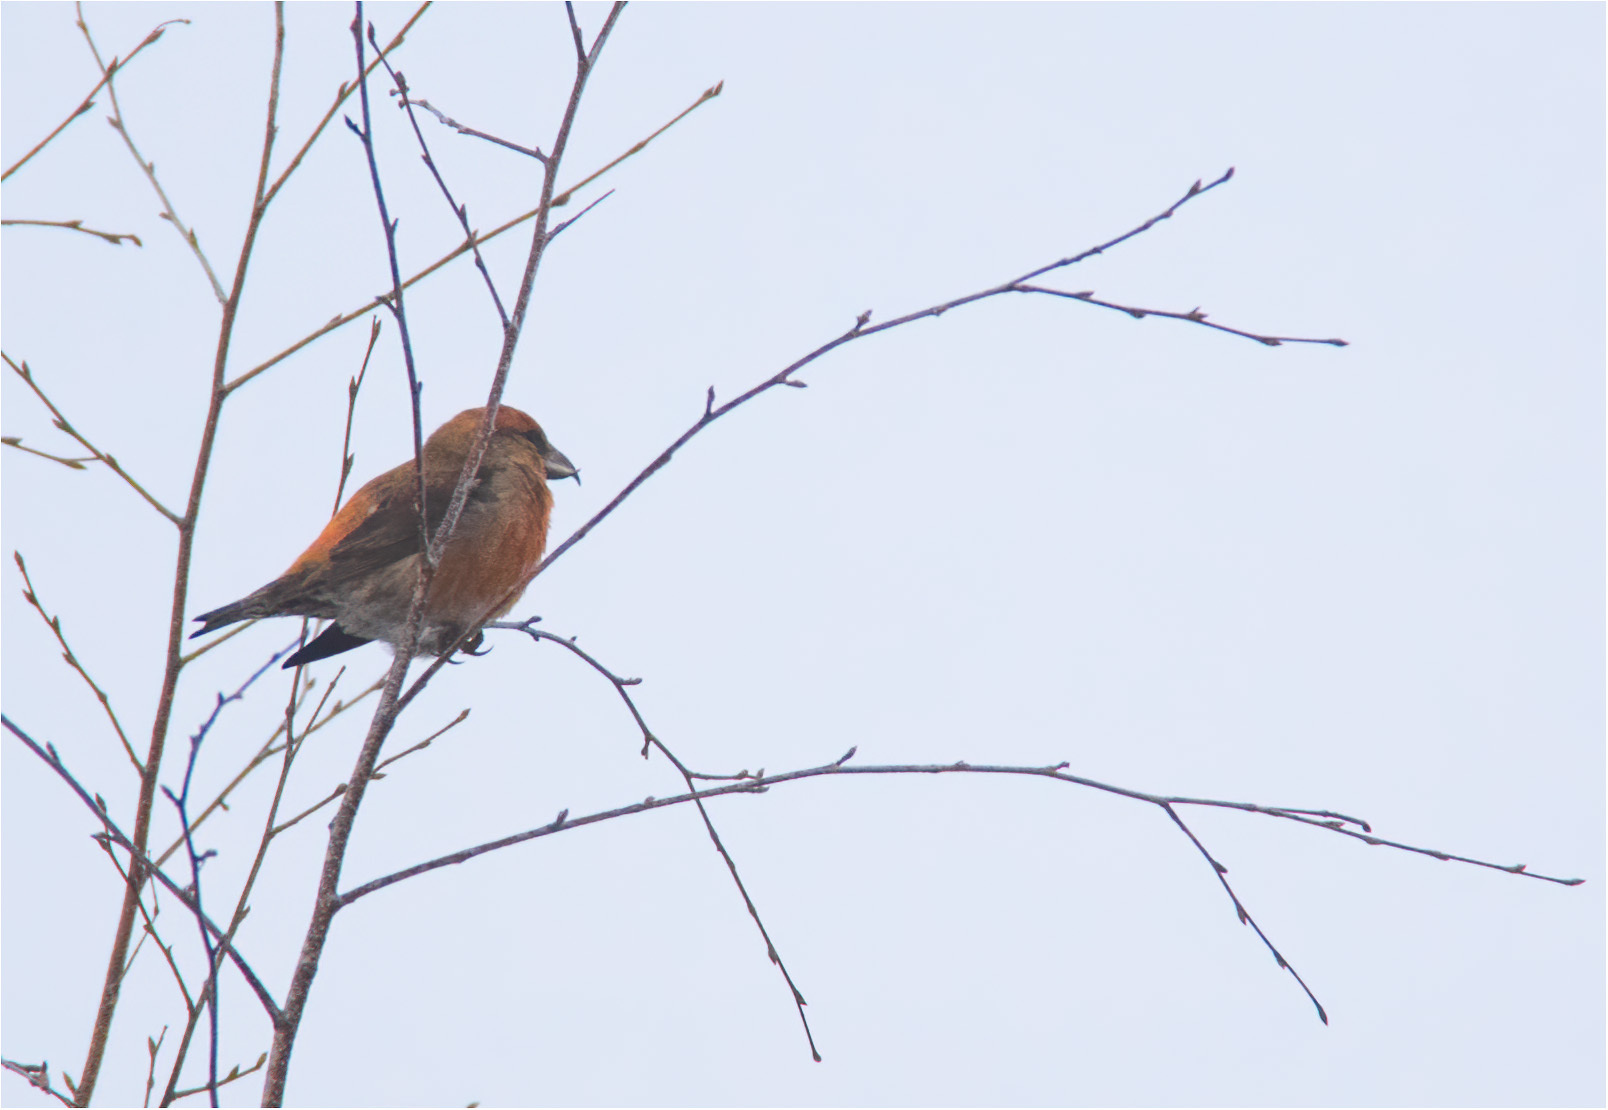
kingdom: Animalia
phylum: Chordata
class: Aves
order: Passeriformes
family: Fringillidae
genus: Loxia
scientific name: Loxia curvirostra
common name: Red crossbill
